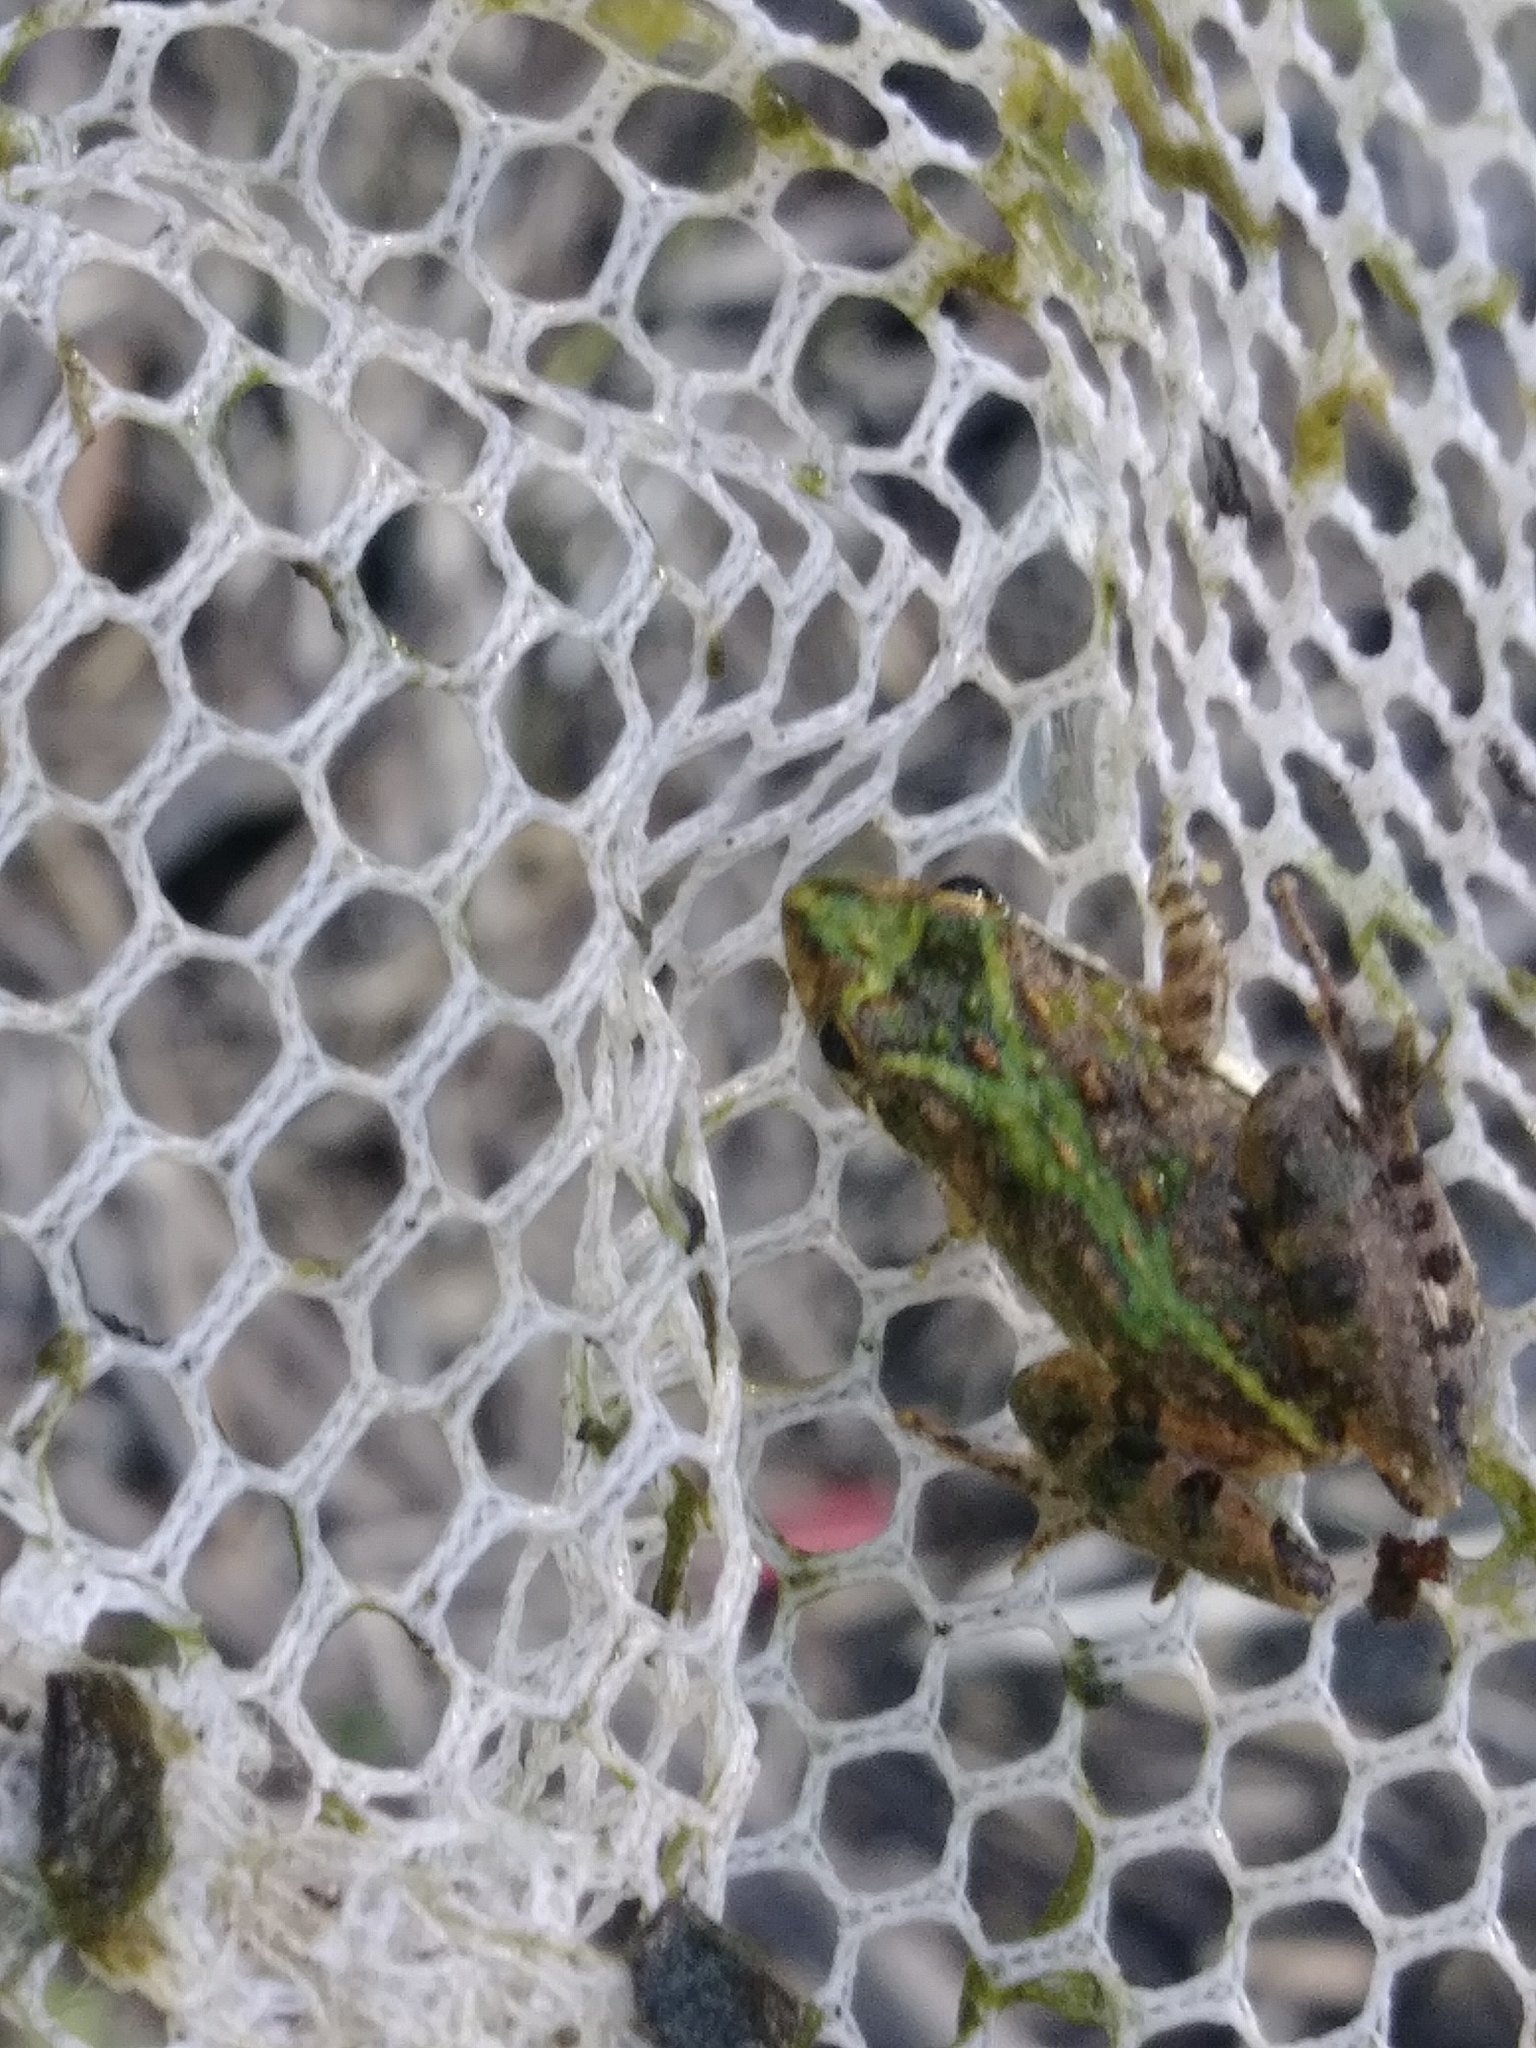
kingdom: Animalia
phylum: Chordata
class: Amphibia
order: Anura
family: Hylidae
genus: Acris
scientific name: Acris gryllus
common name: Southern cricket frog
